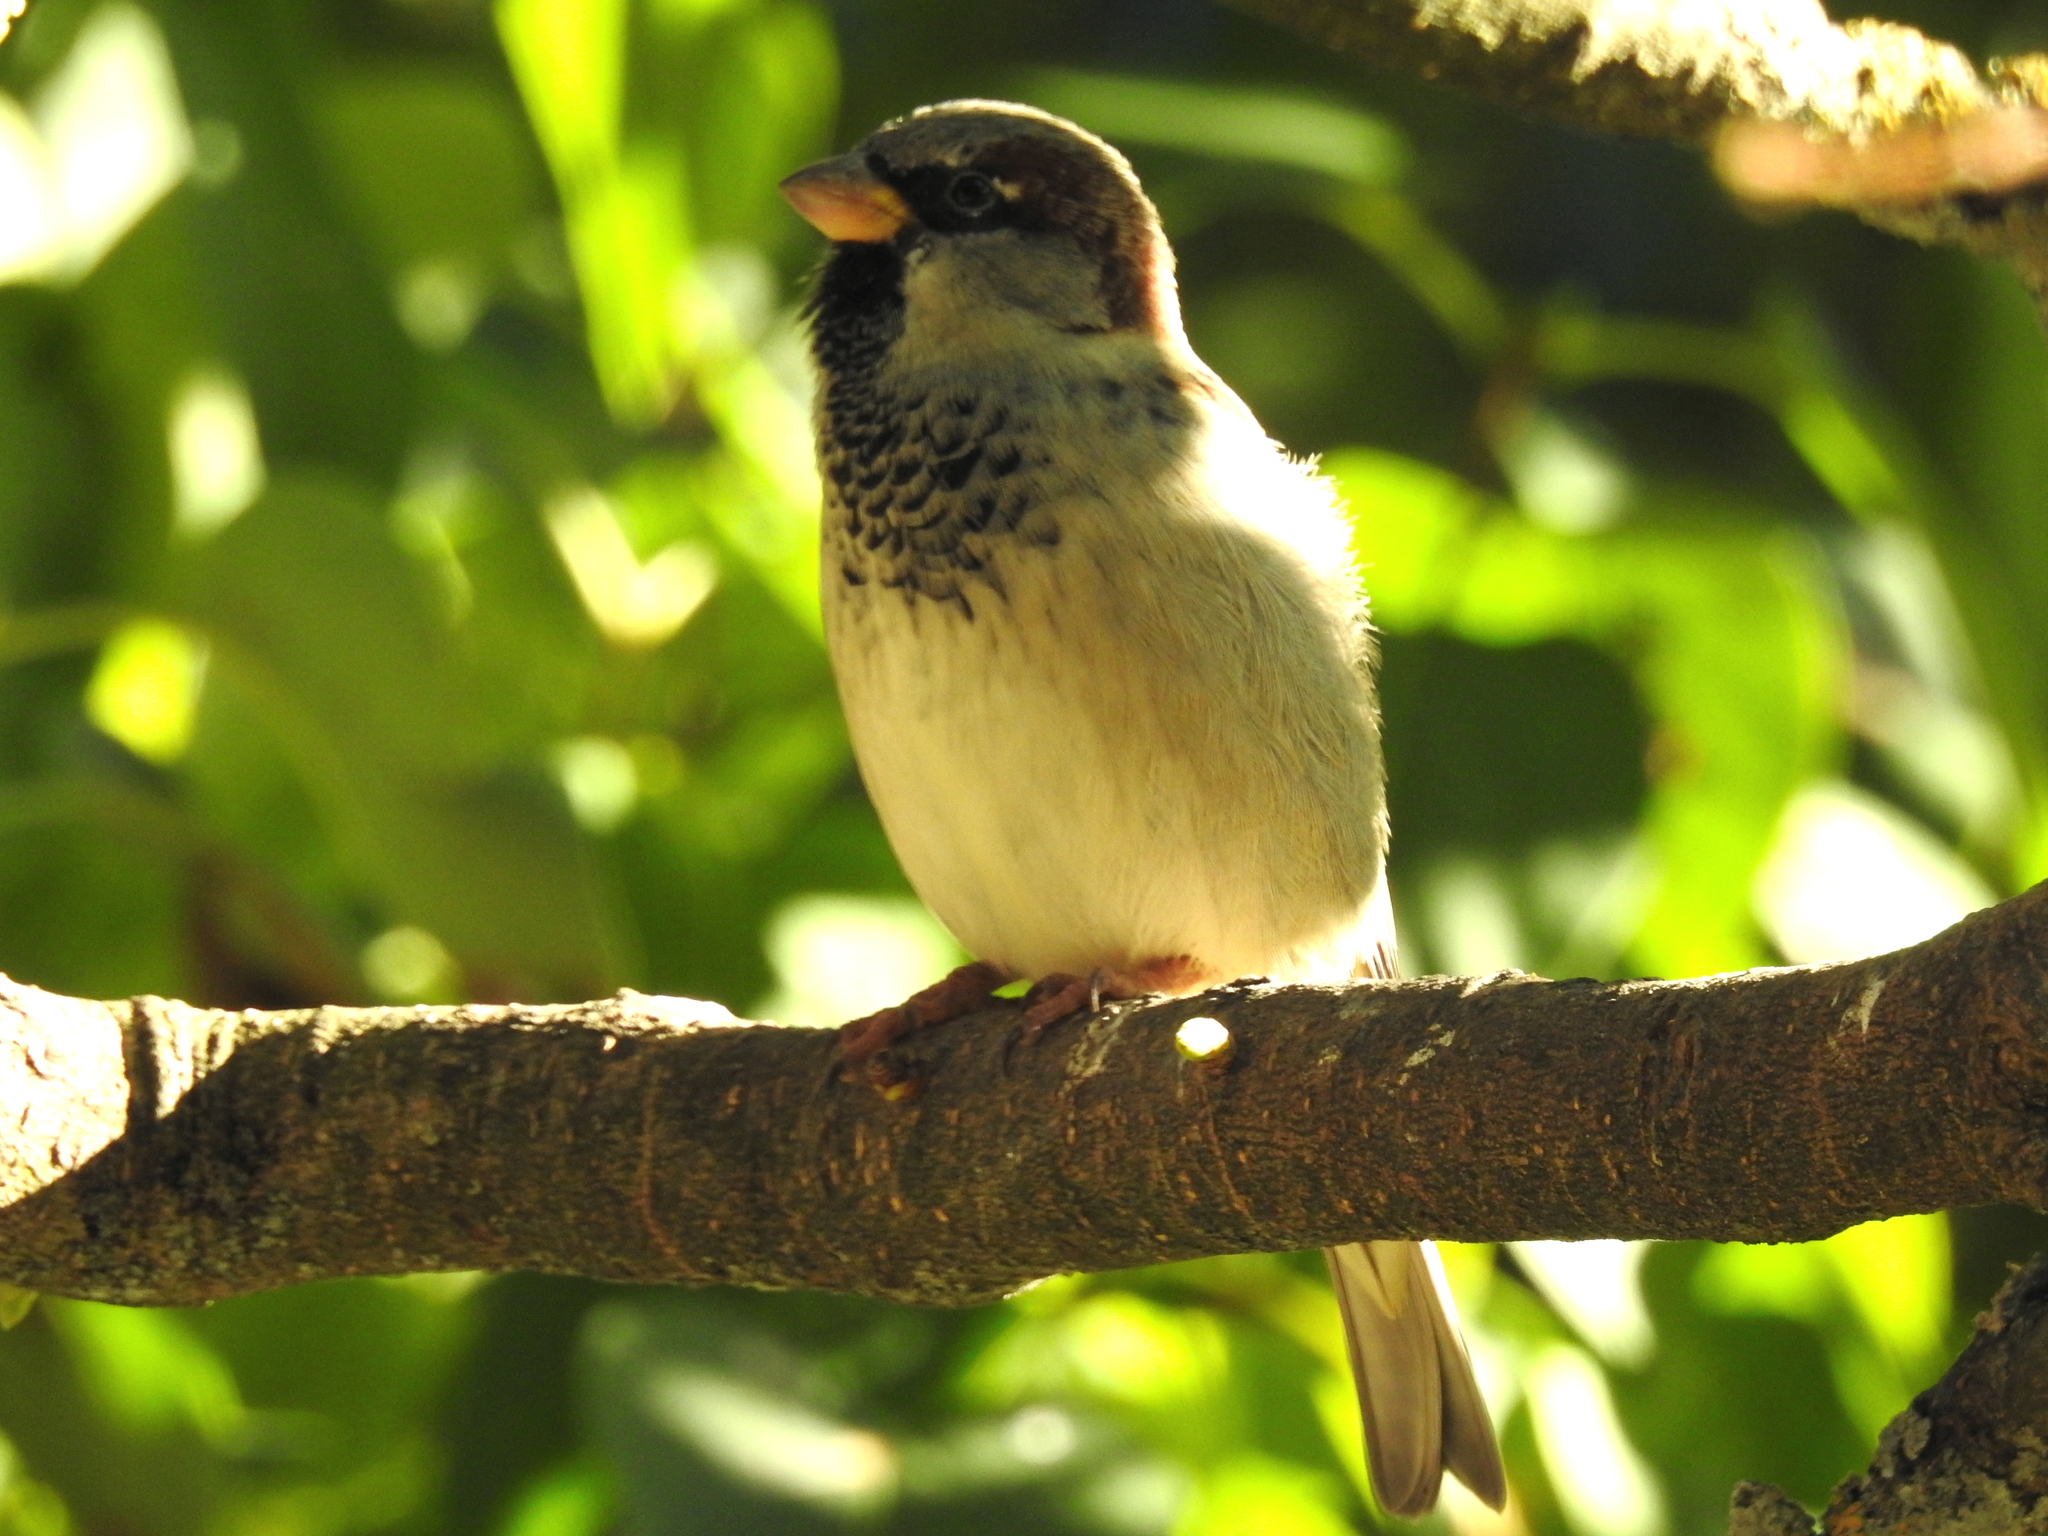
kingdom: Animalia
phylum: Chordata
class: Aves
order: Passeriformes
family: Passeridae
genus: Passer
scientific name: Passer domesticus
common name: House sparrow
